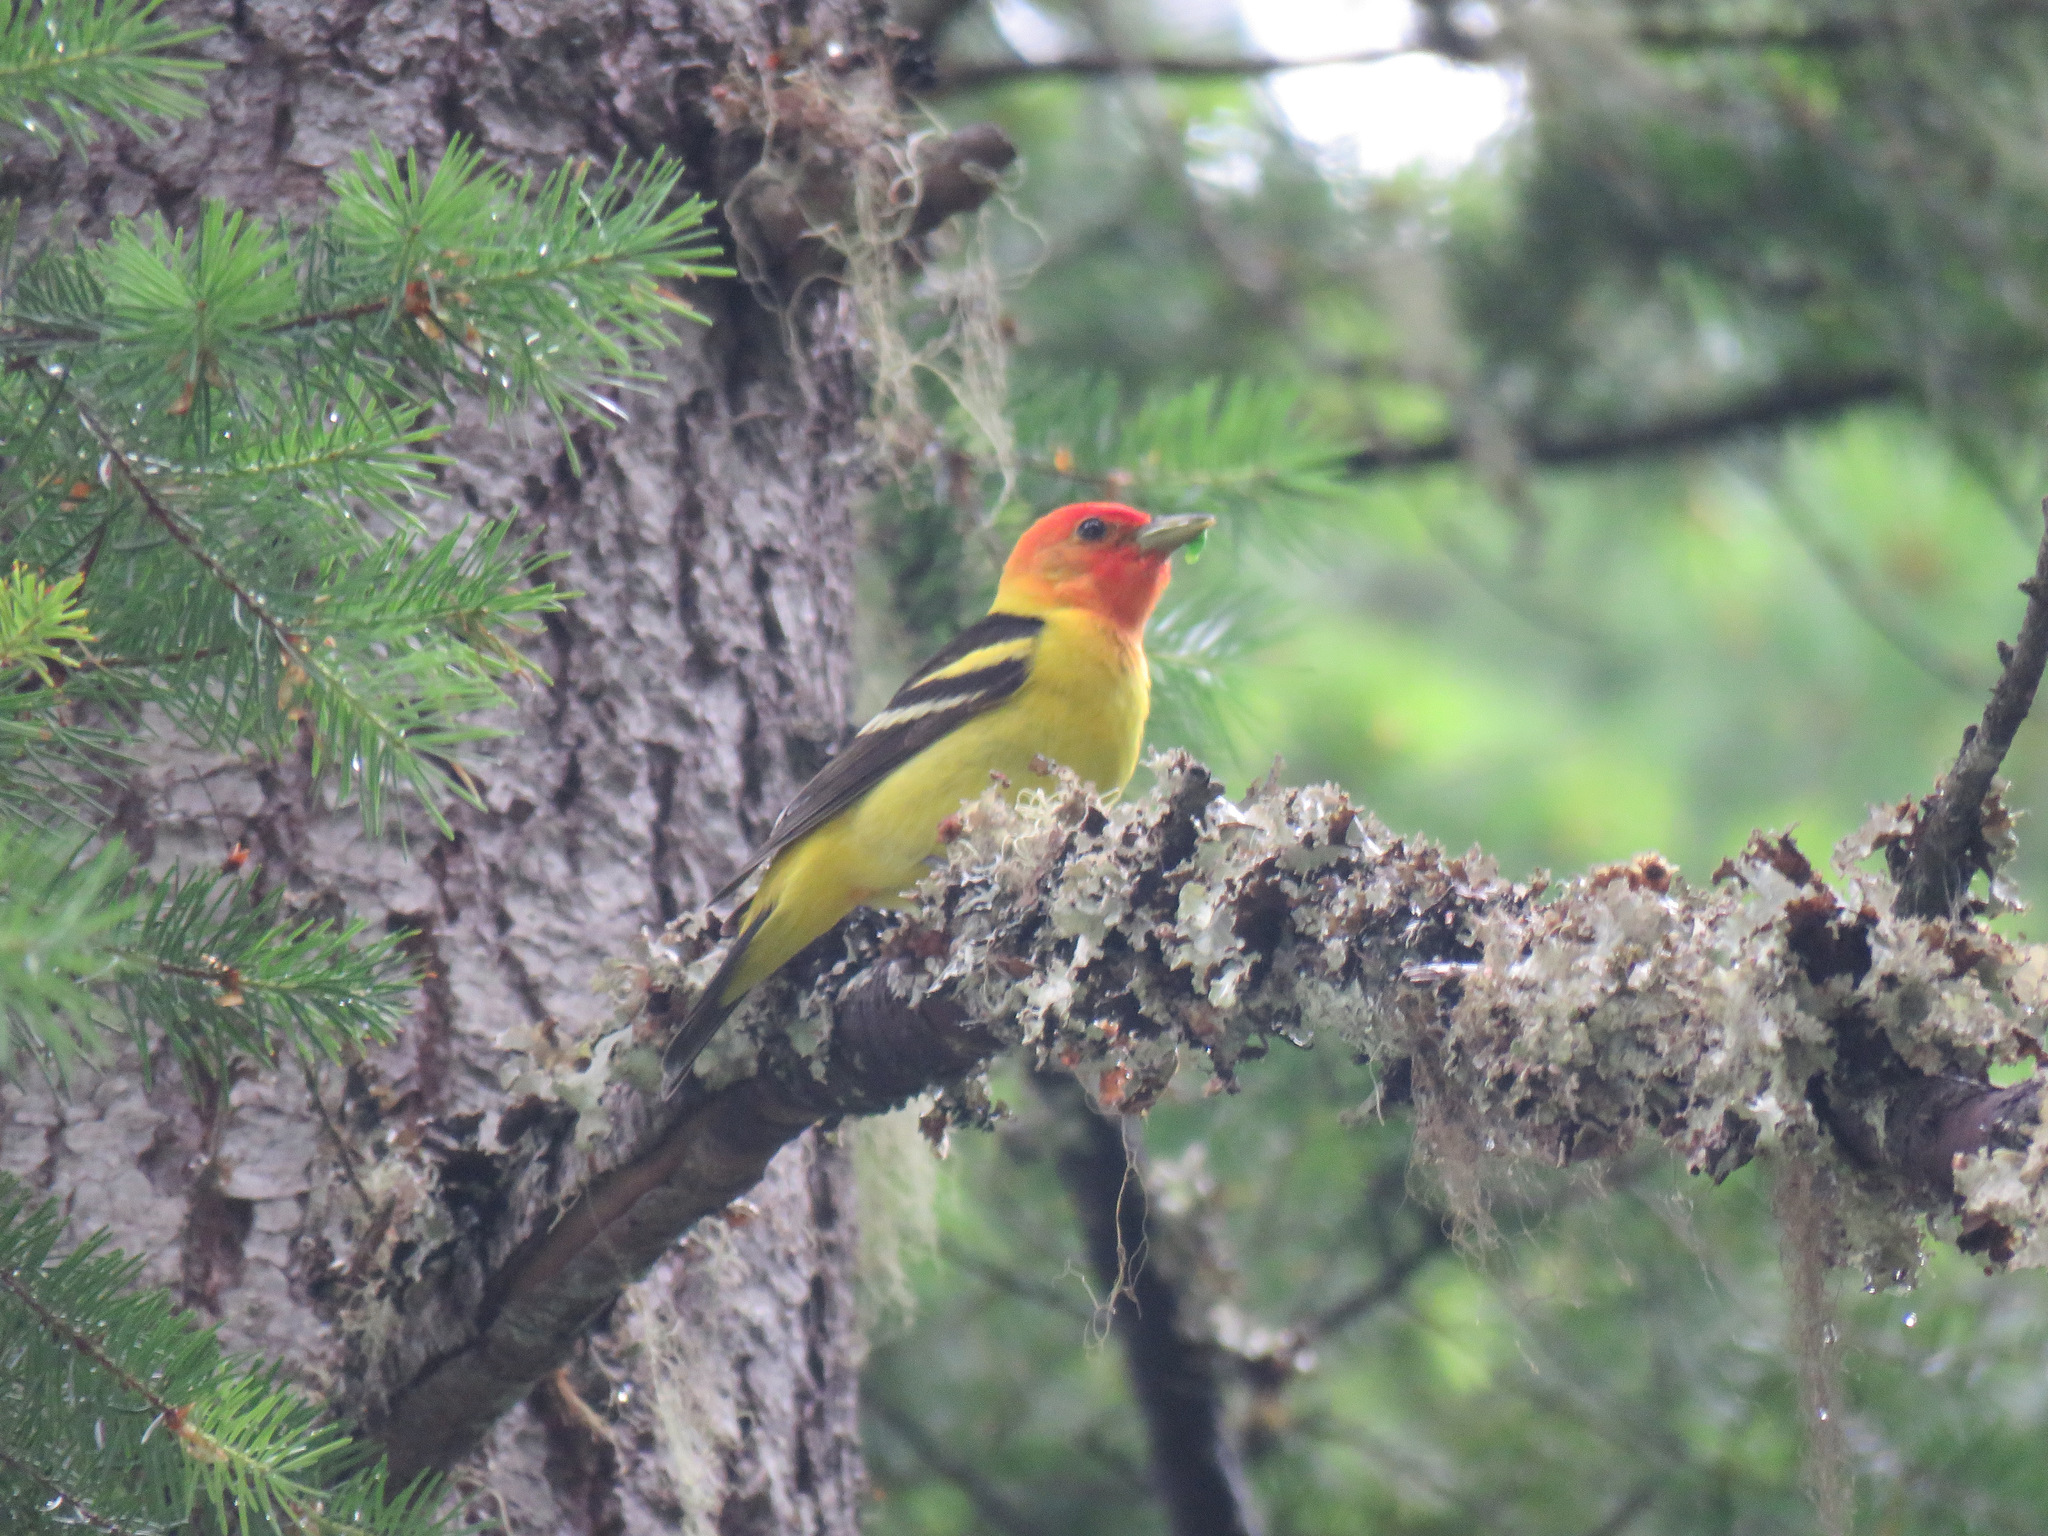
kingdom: Animalia
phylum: Chordata
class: Aves
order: Passeriformes
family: Cardinalidae
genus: Piranga
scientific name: Piranga ludoviciana
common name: Western tanager
